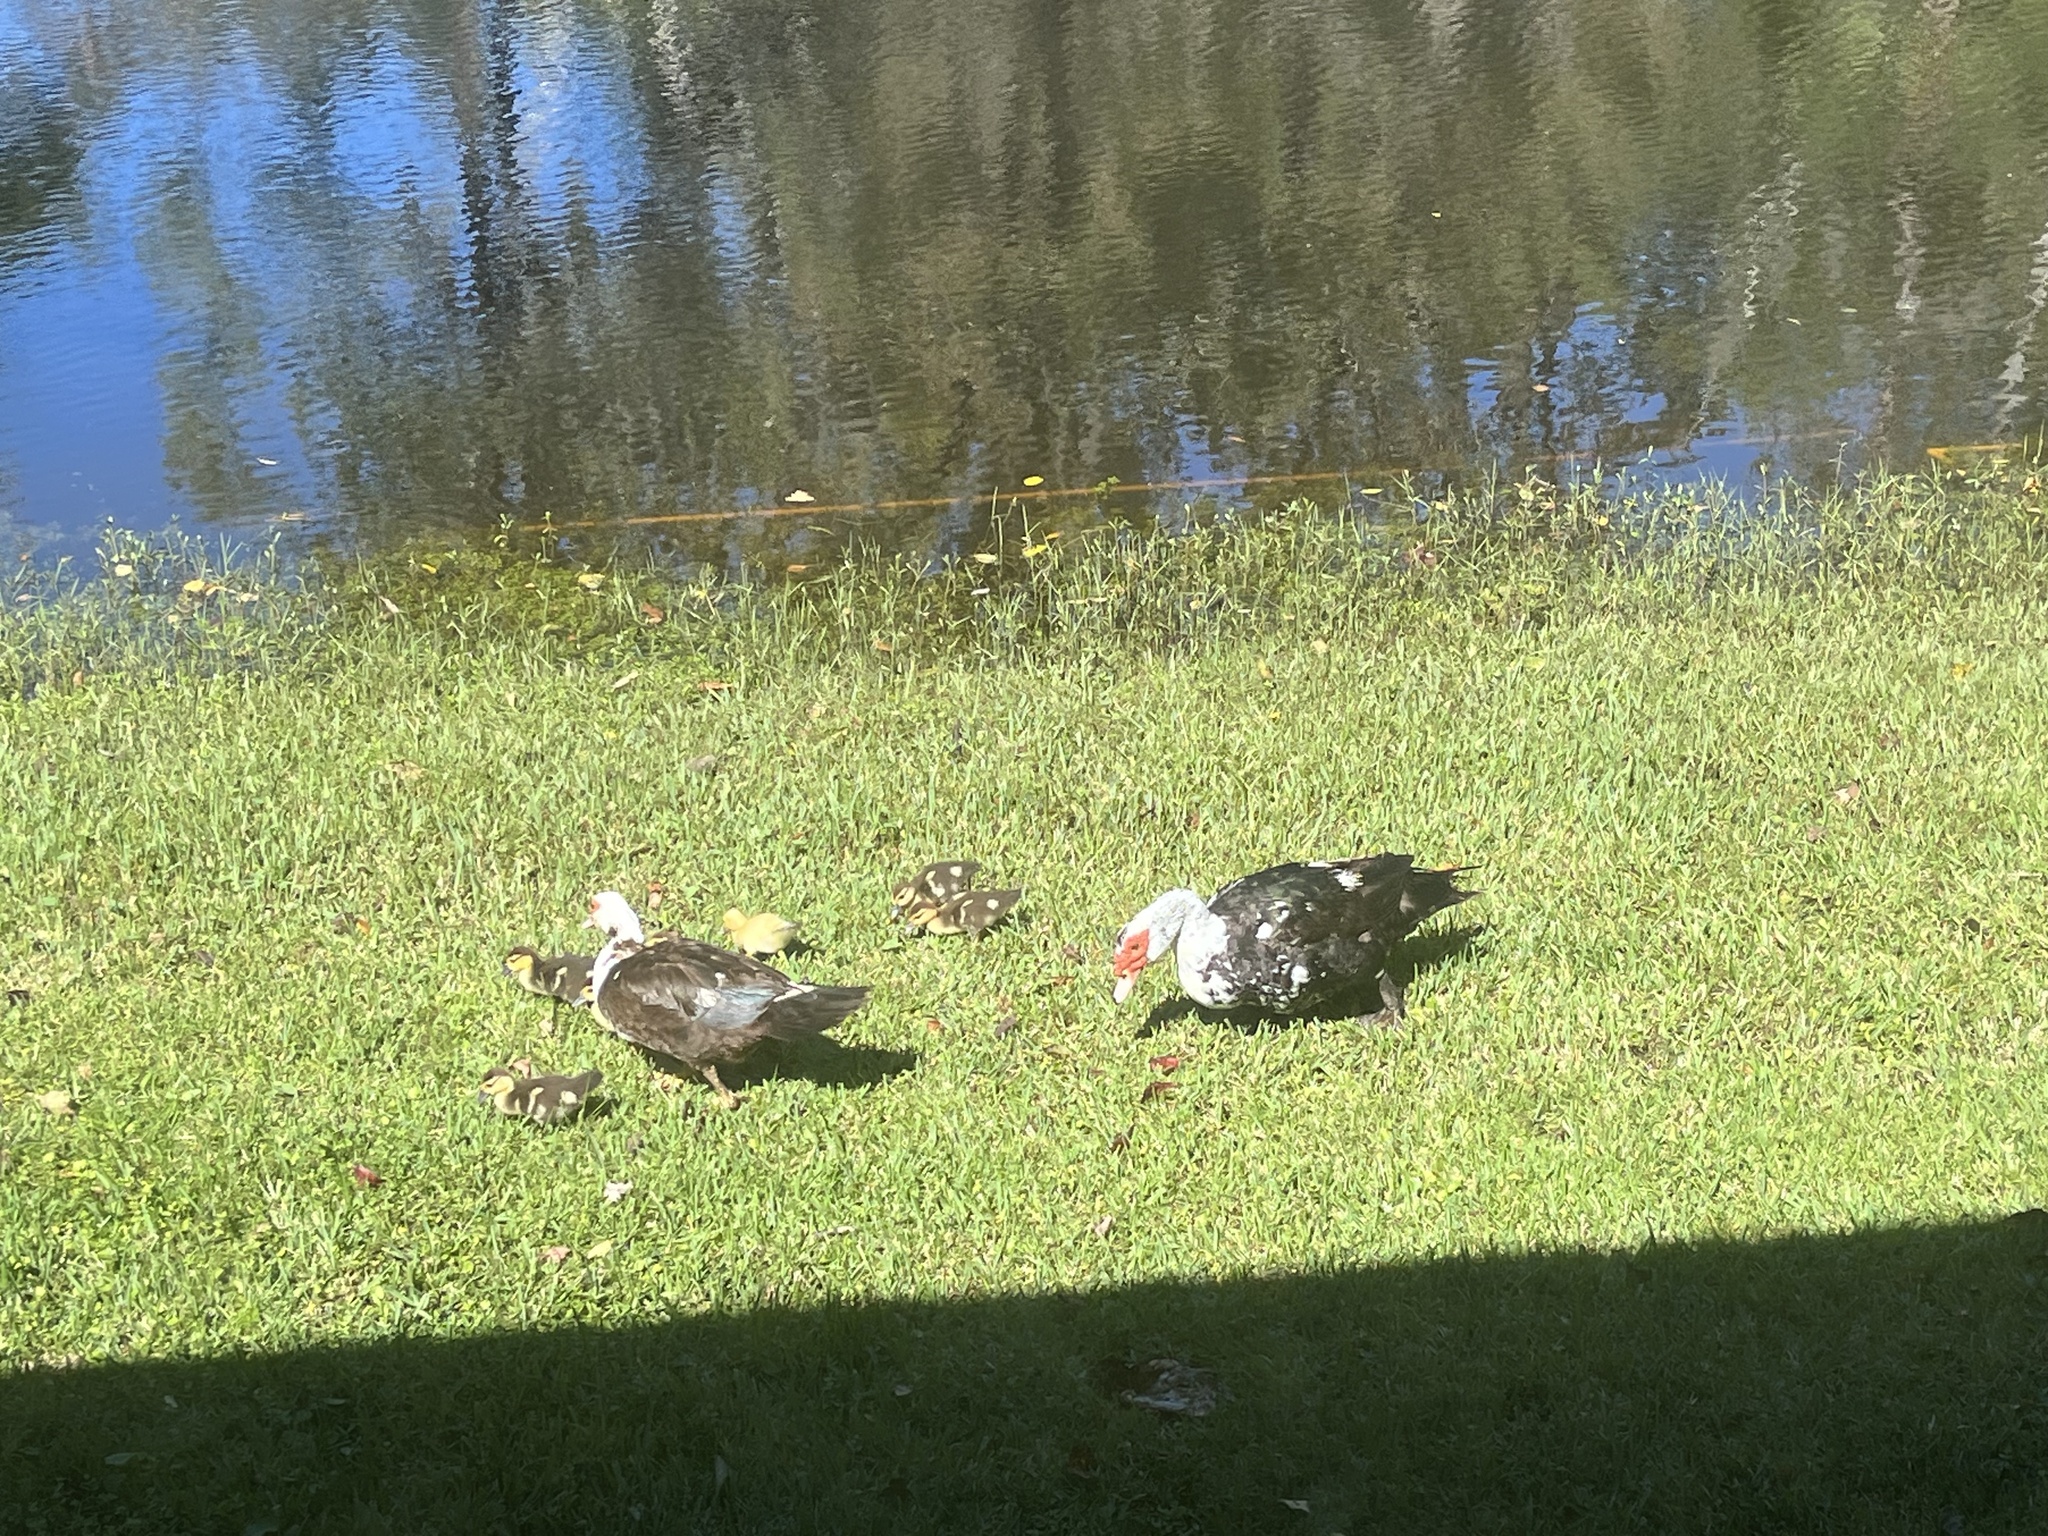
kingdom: Animalia
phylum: Chordata
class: Aves
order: Anseriformes
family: Anatidae
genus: Cairina
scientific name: Cairina moschata
